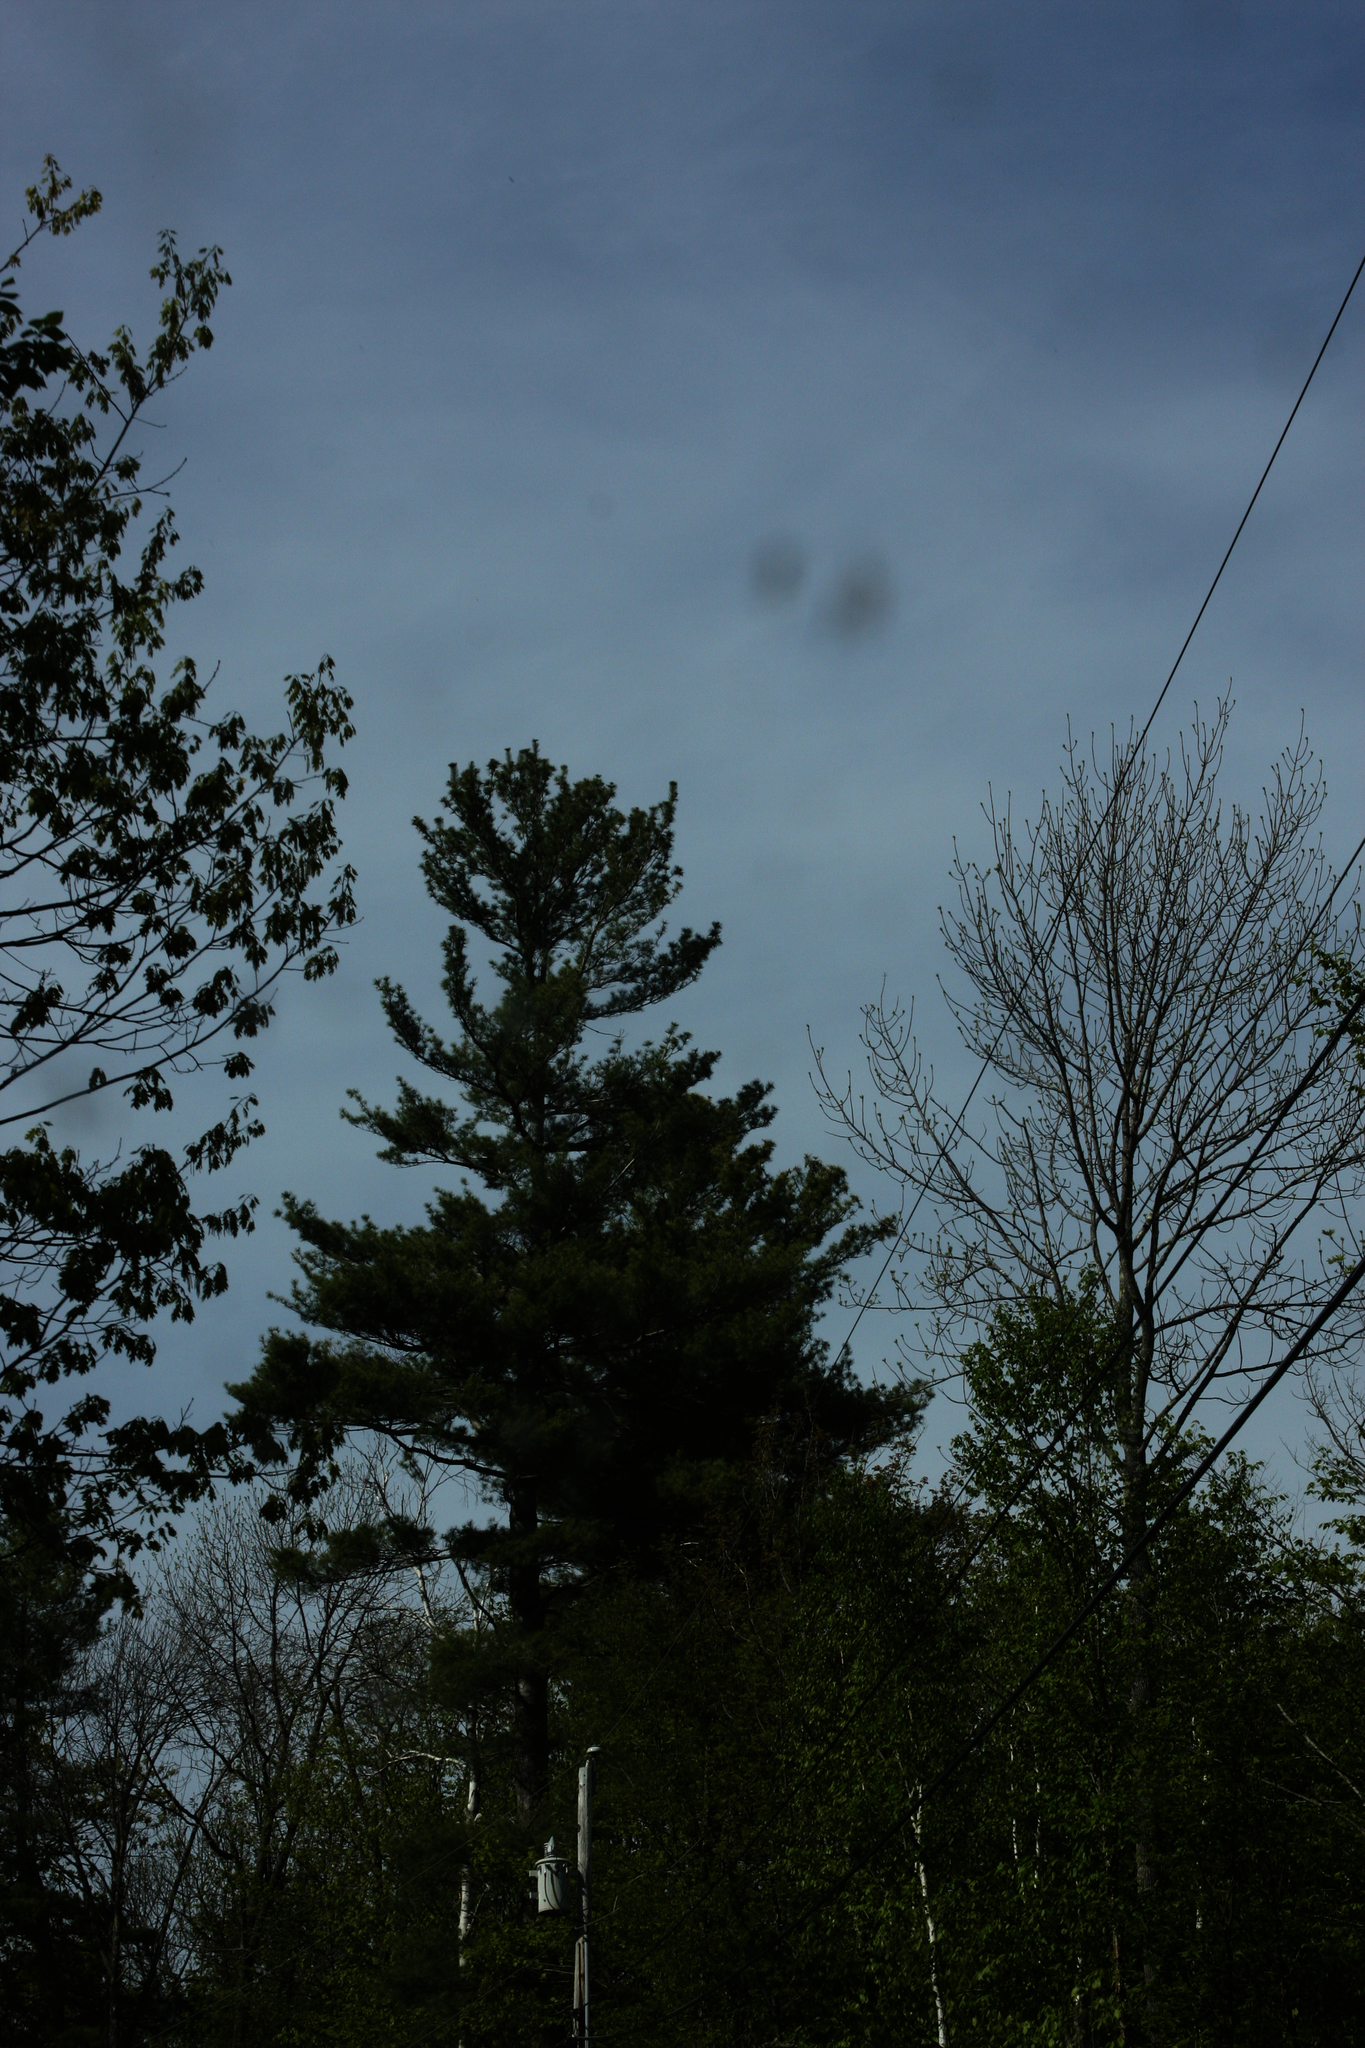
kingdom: Plantae
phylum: Tracheophyta
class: Pinopsida
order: Pinales
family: Pinaceae
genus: Pinus
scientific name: Pinus strobus
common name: Weymouth pine
